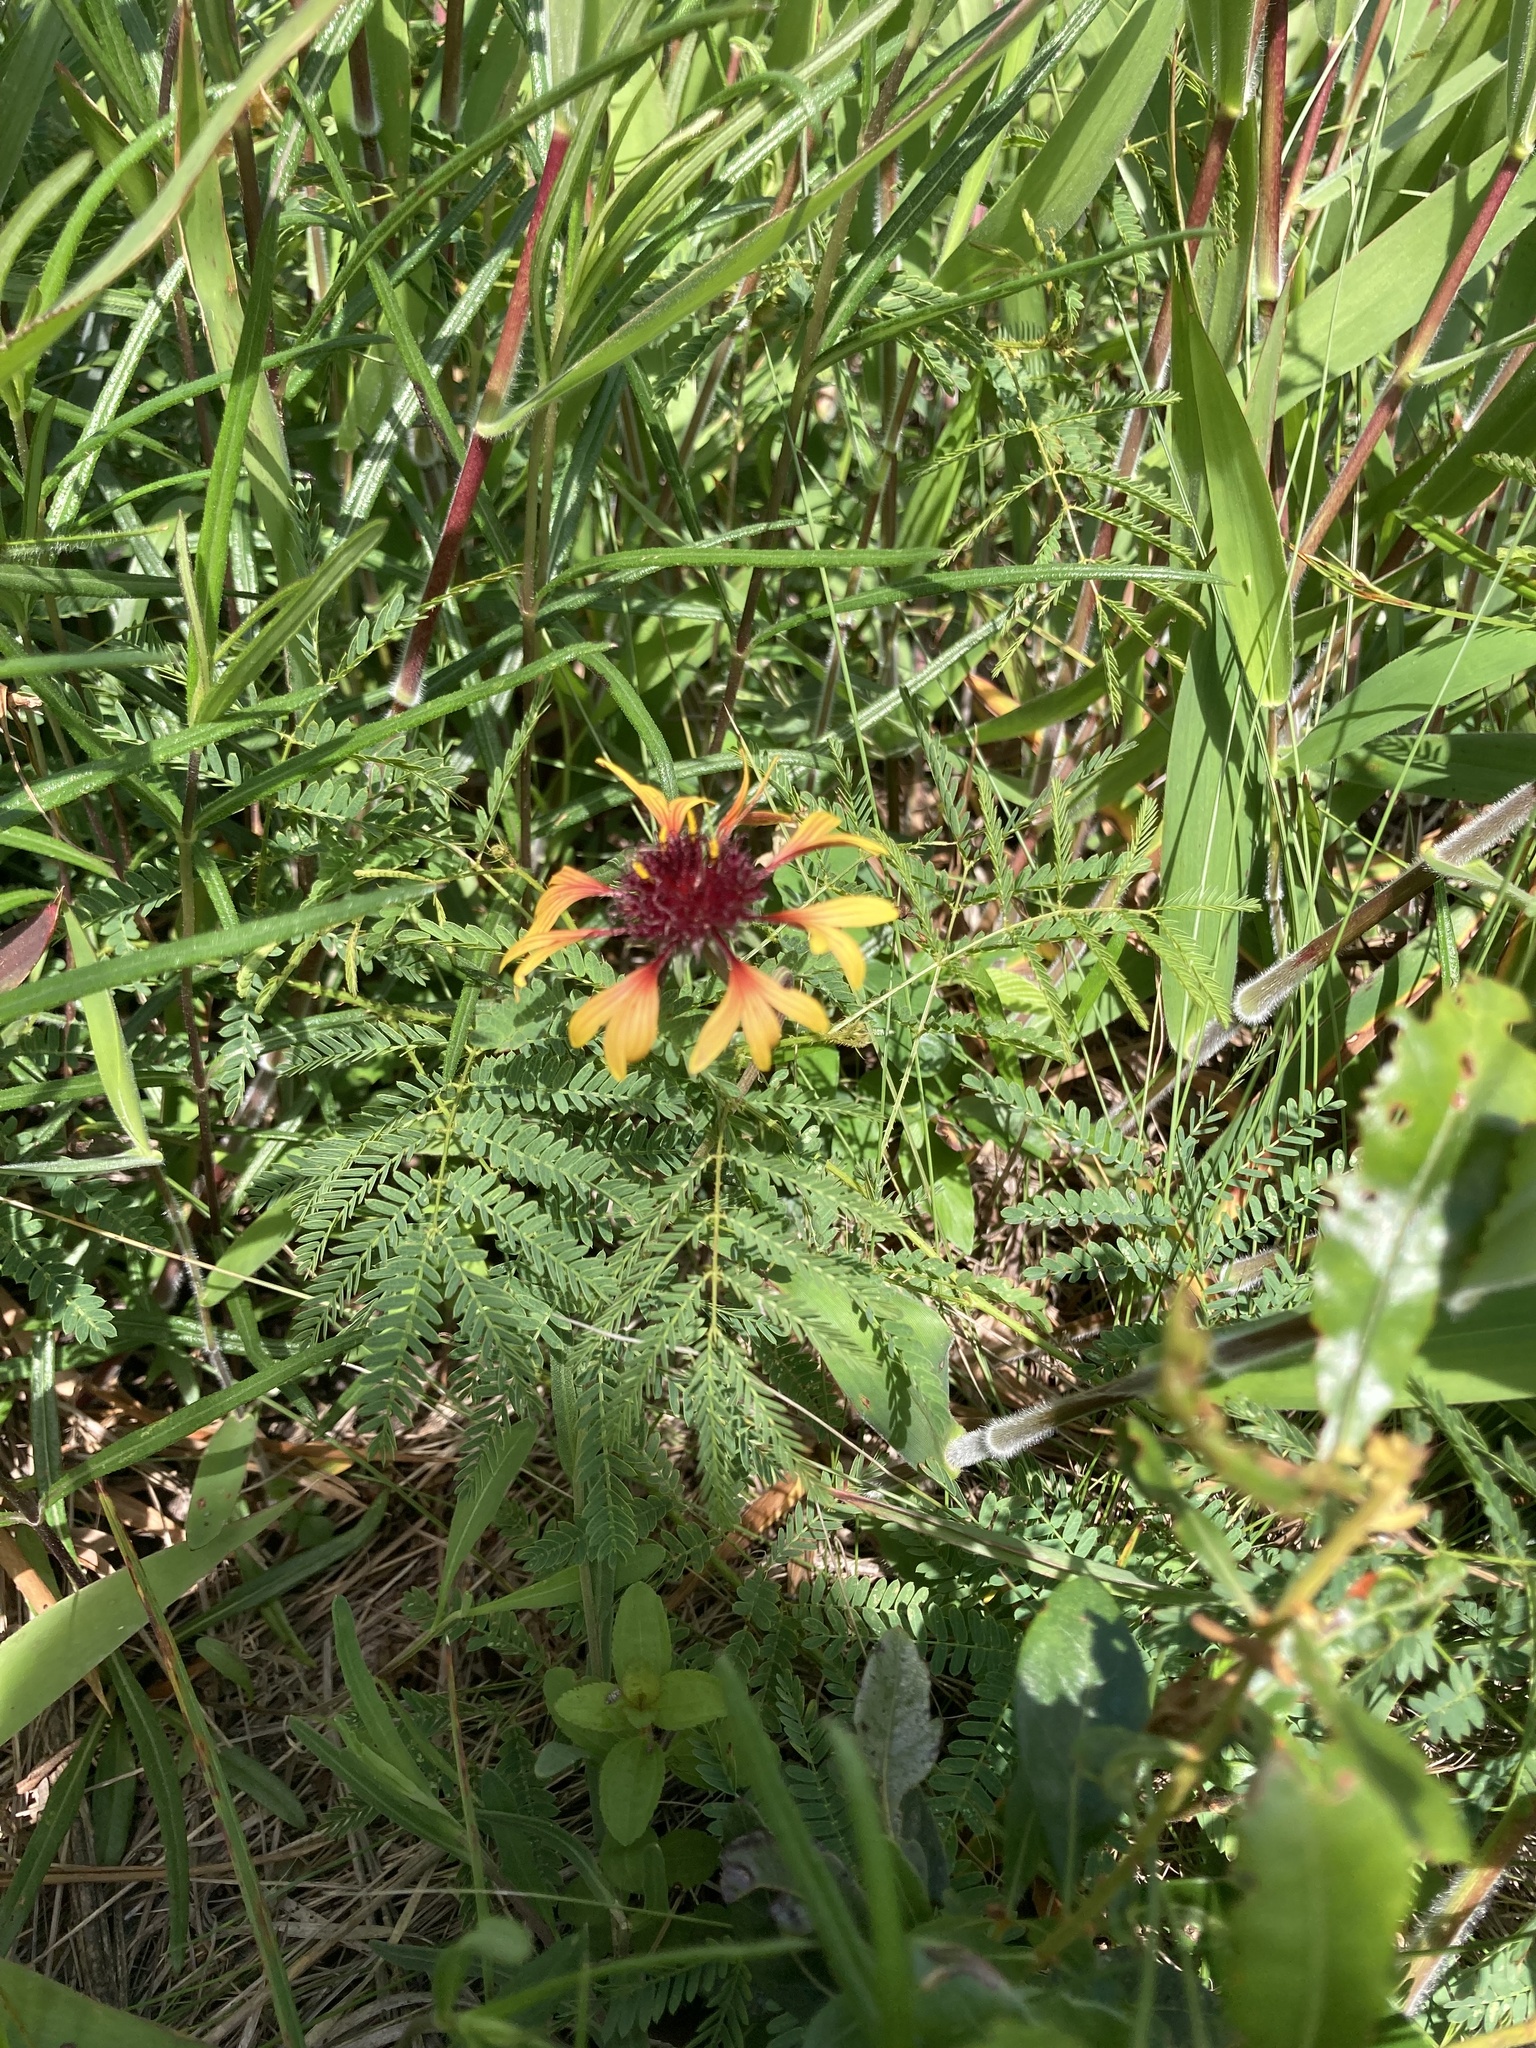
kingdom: Plantae
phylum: Tracheophyta
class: Magnoliopsida
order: Asterales
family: Asteraceae
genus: Gaillardia
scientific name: Gaillardia aestivalis
